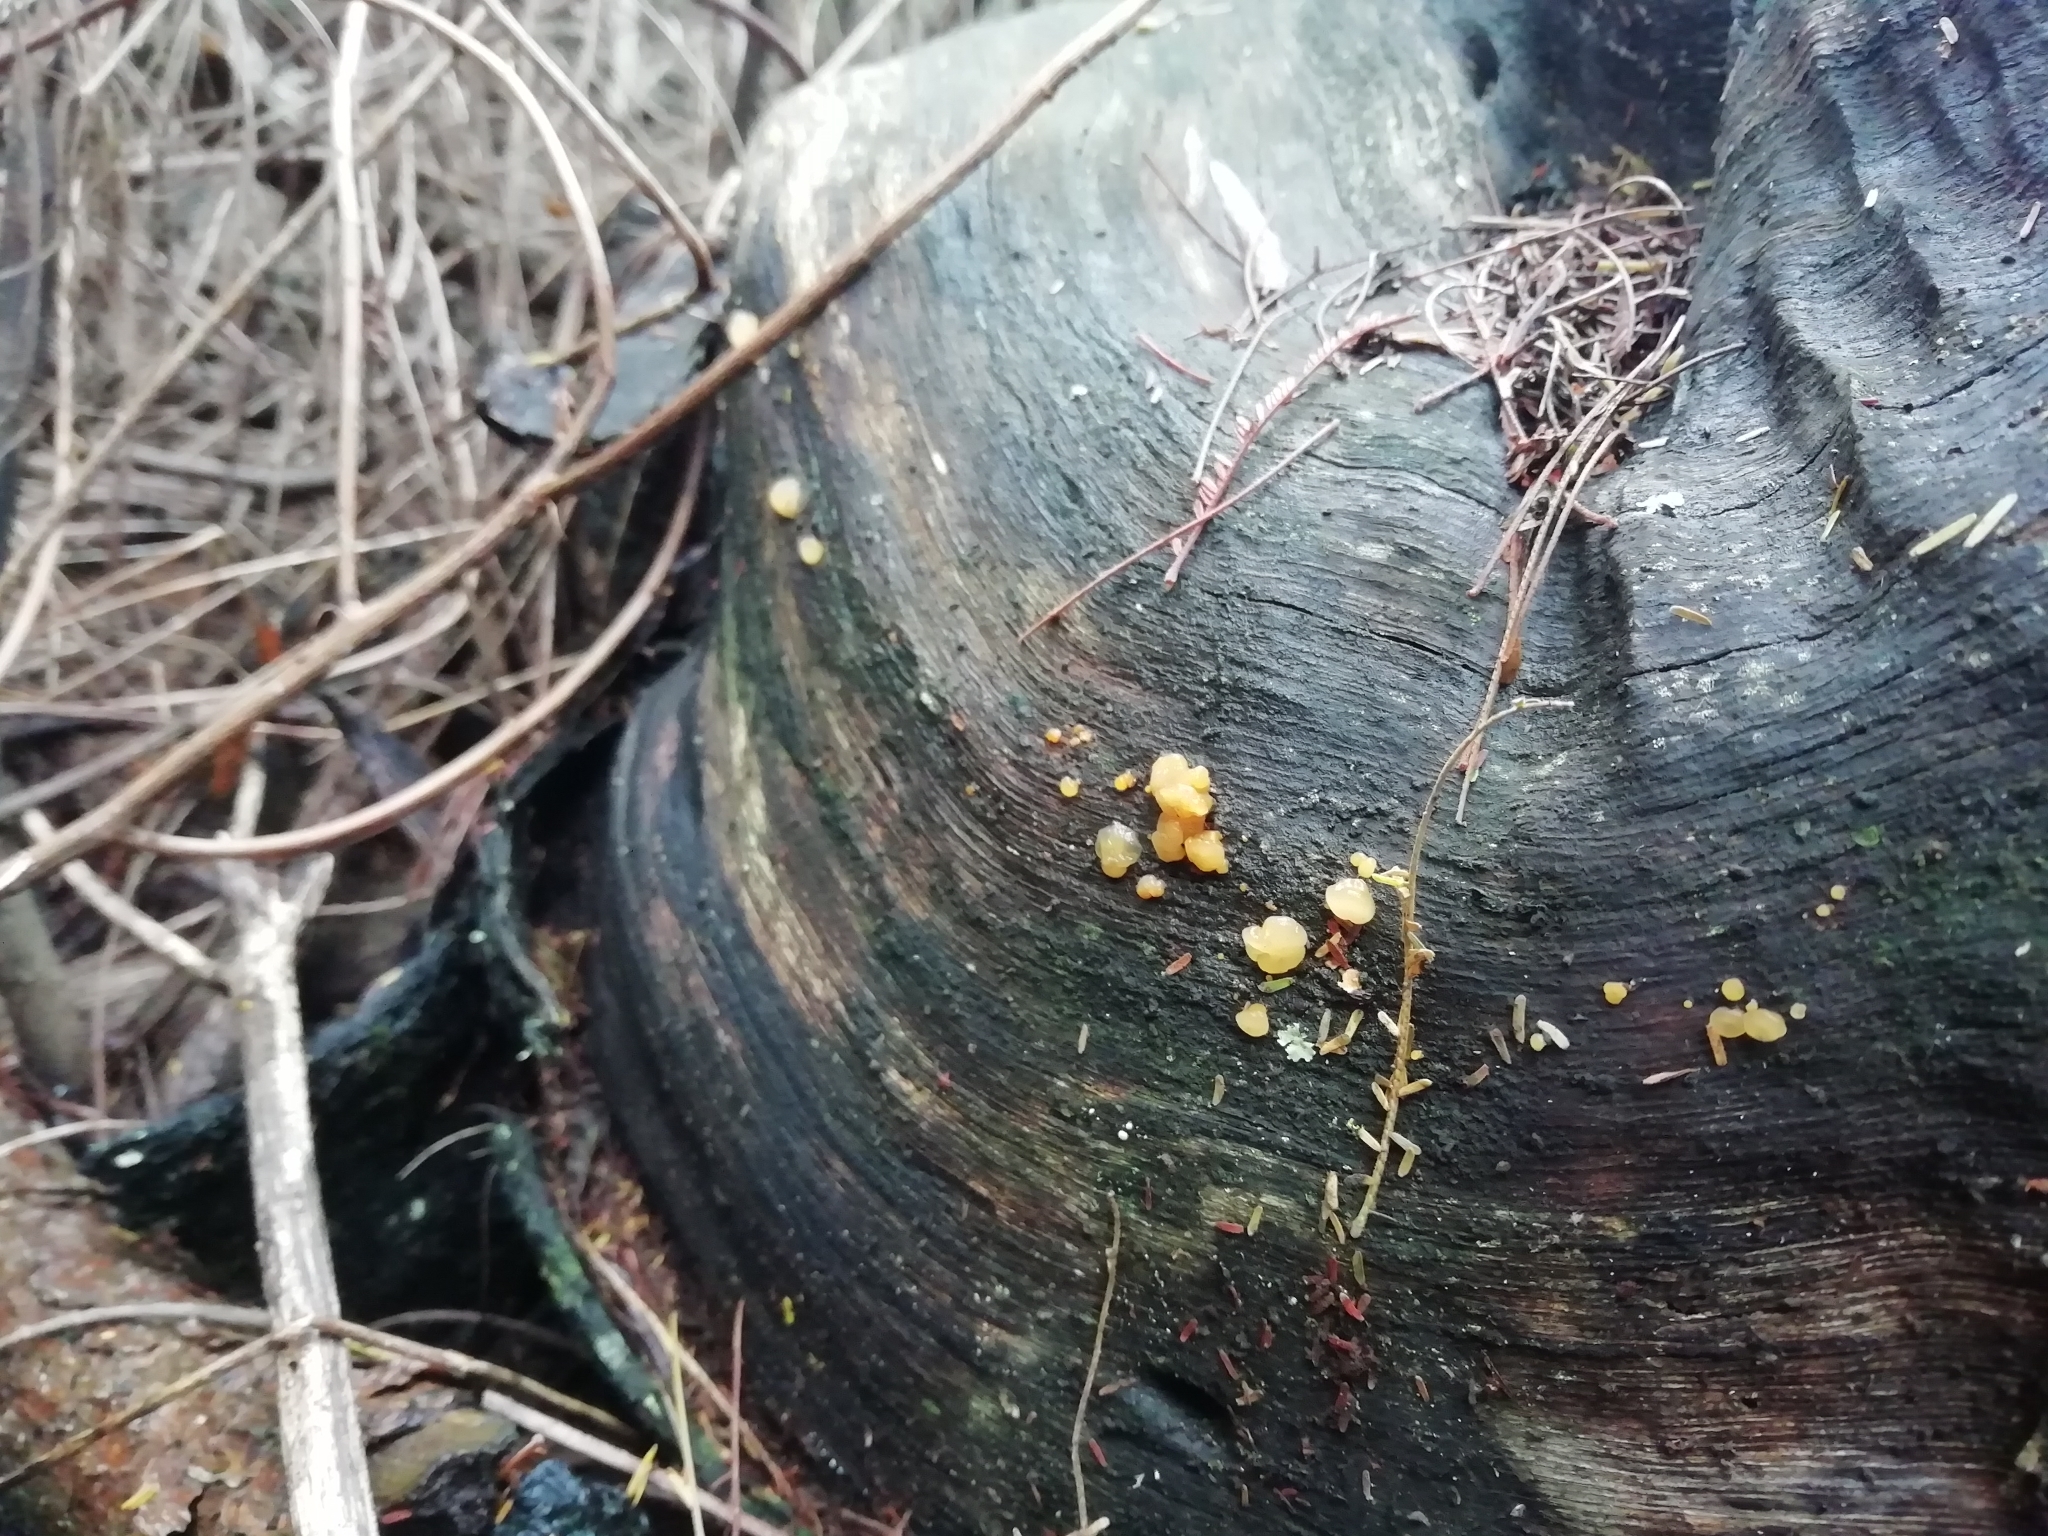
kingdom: Fungi
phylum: Basidiomycota
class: Tremellomycetes
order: Tremellales
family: Tremellaceae
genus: Tremella
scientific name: Tremella mesenterica
